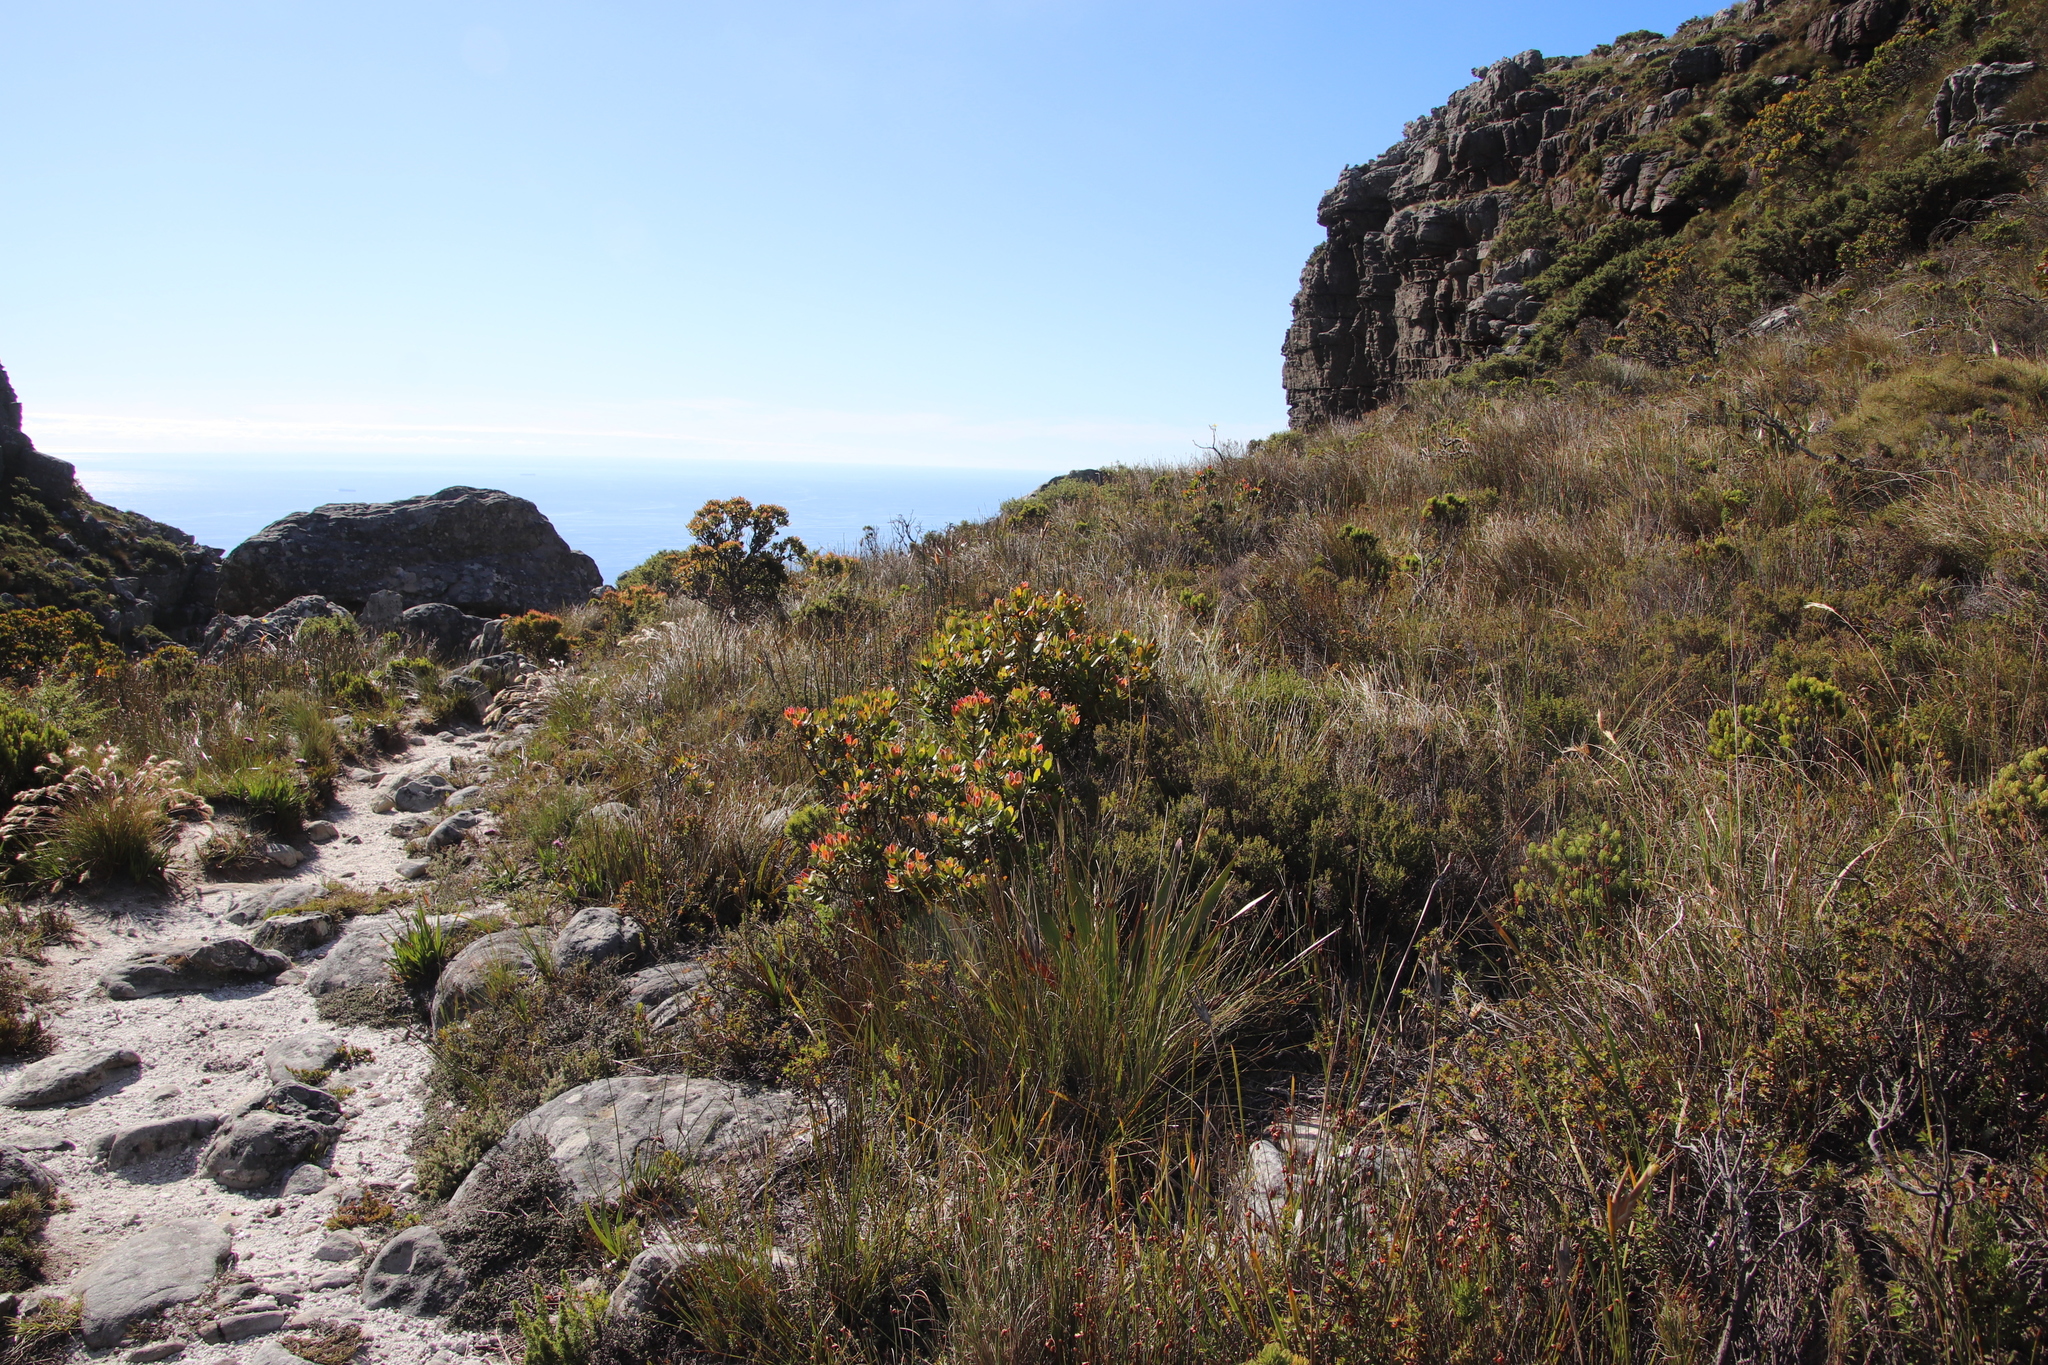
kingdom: Plantae
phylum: Tracheophyta
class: Magnoliopsida
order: Proteales
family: Proteaceae
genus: Leucadendron
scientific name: Leucadendron strobilinum
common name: Mountain rose
